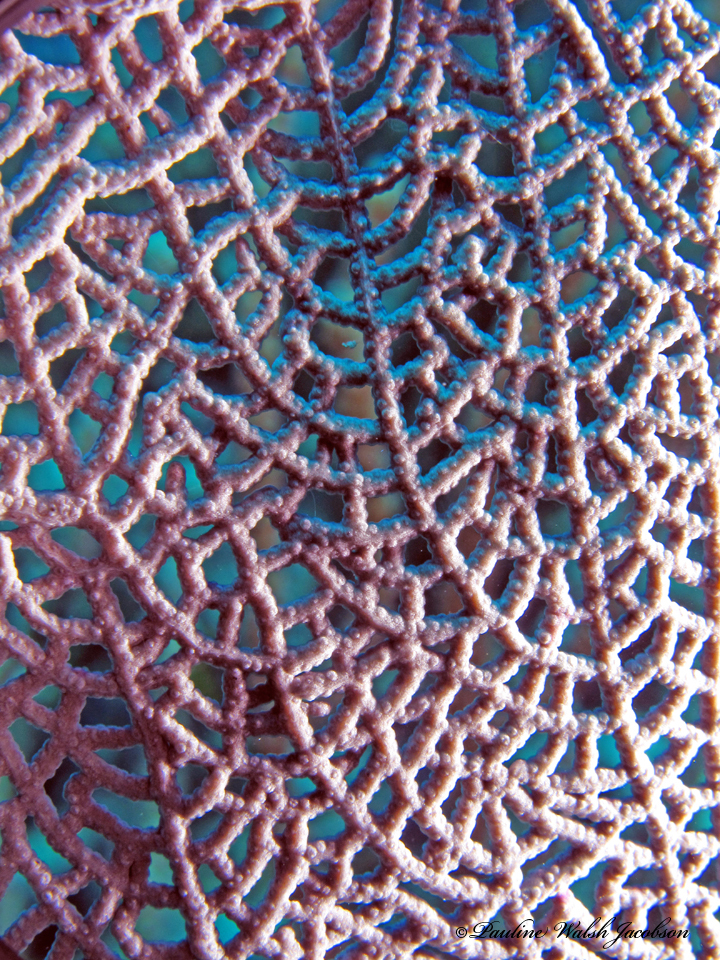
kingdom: Animalia
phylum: Cnidaria
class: Anthozoa
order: Malacalcyonacea
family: Gorgoniidae
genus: Gorgonia
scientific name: Gorgonia ventalina
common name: Common sea fan
